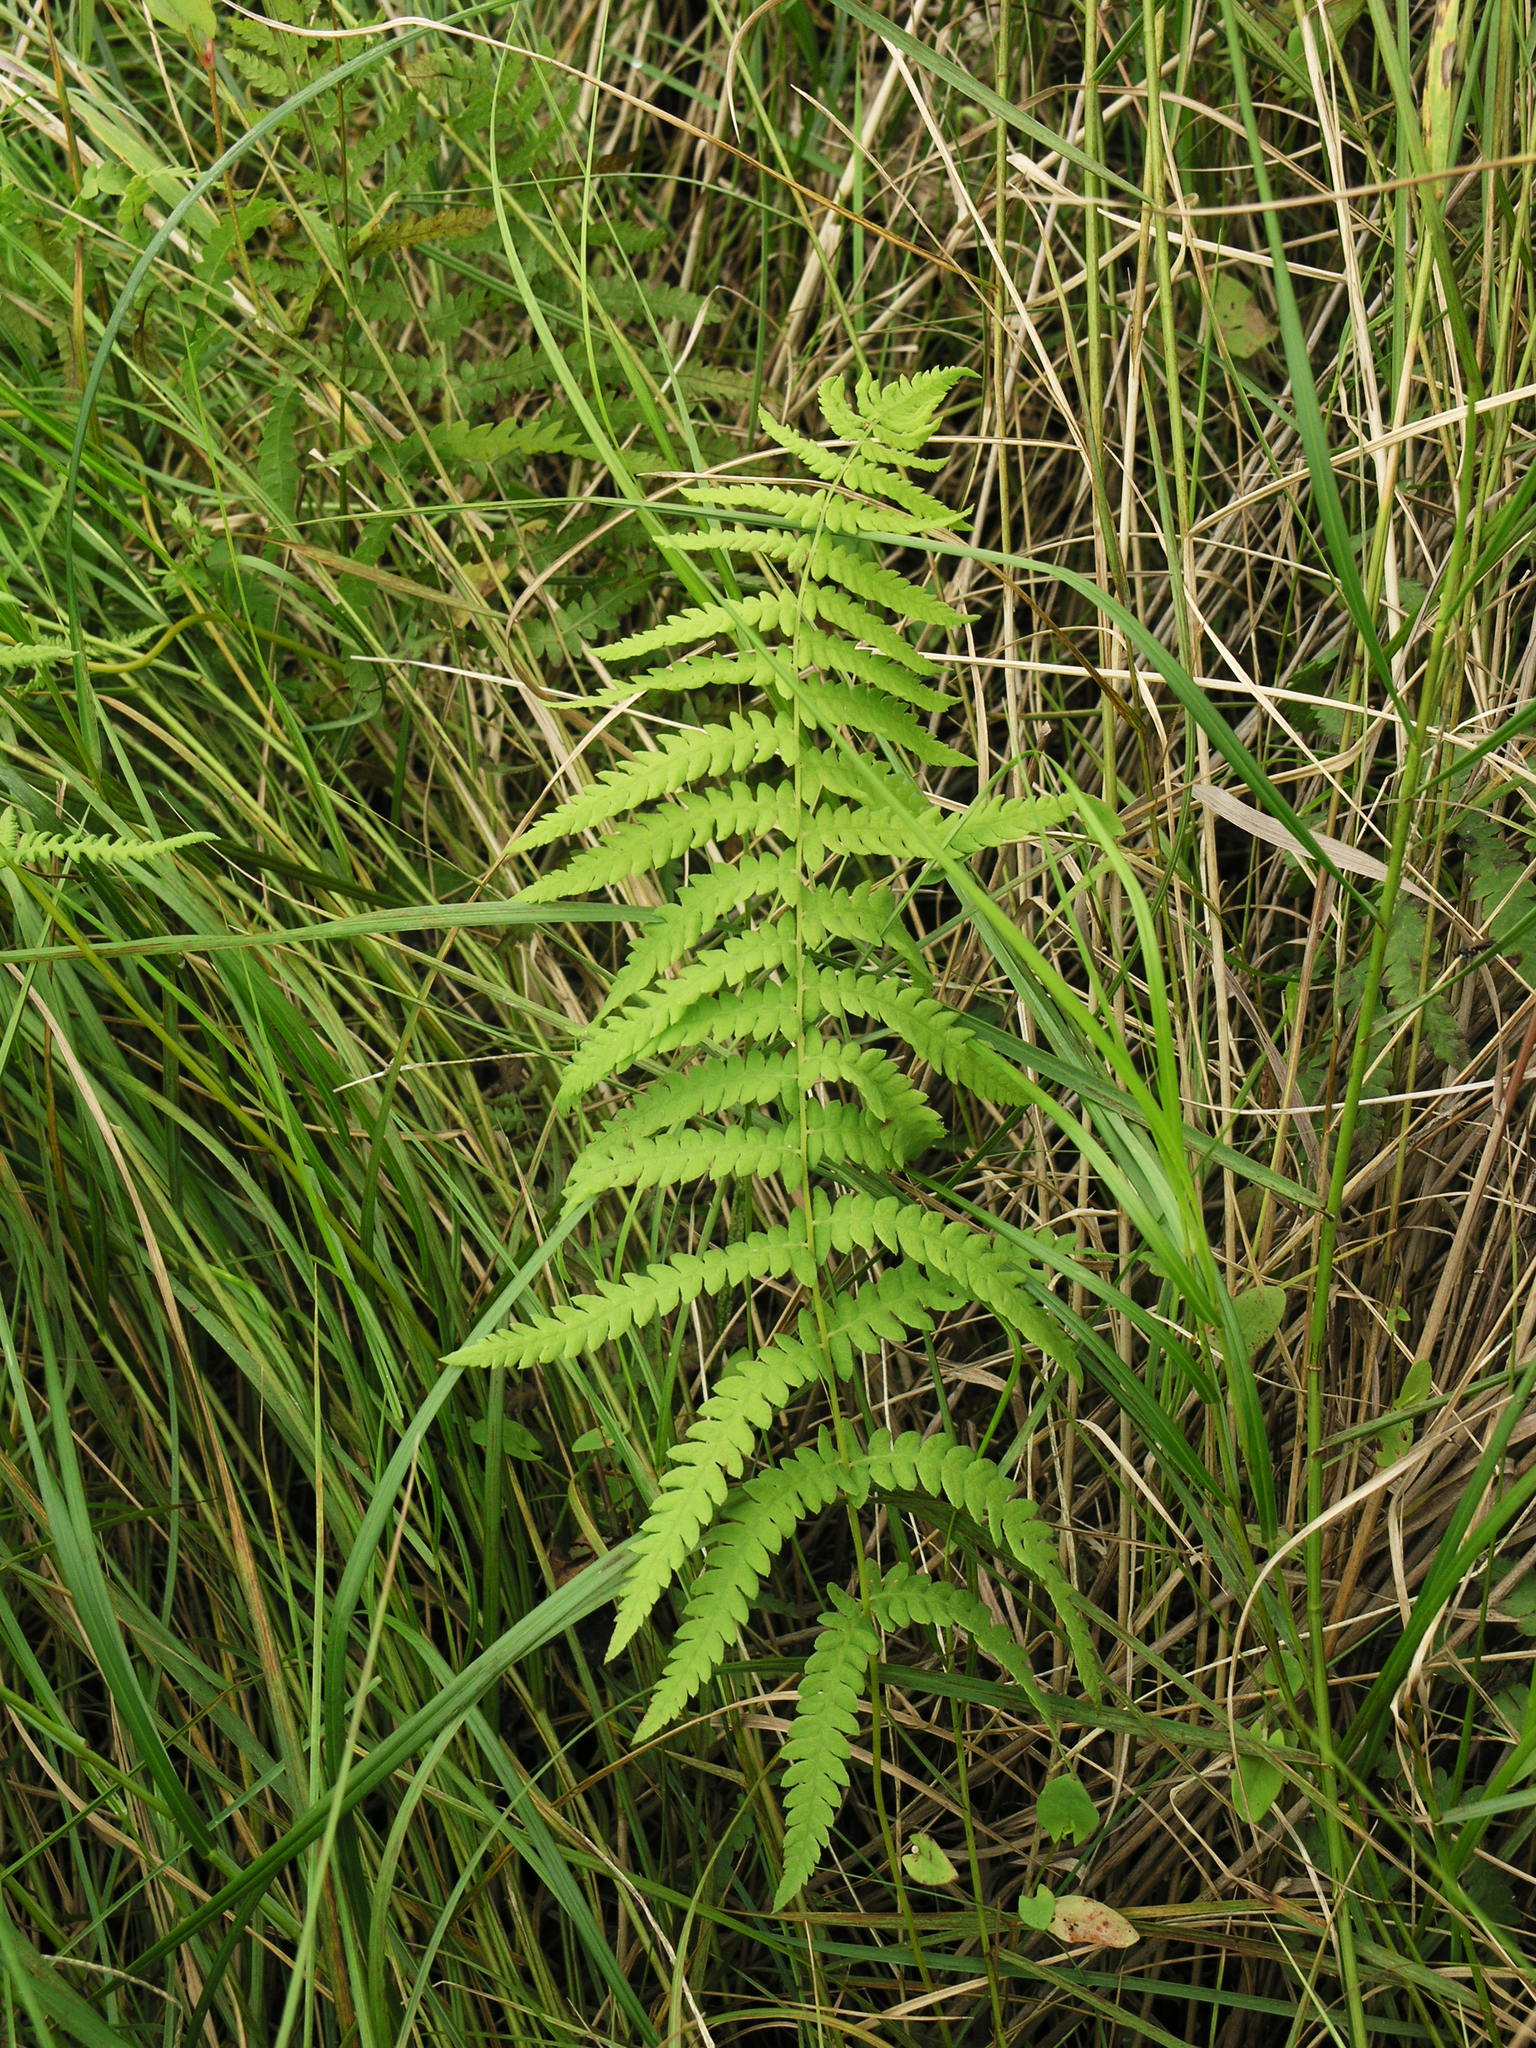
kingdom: Plantae
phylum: Tracheophyta
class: Polypodiopsida
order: Polypodiales
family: Thelypteridaceae
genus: Thelypteris
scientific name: Thelypteris palustris
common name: Marsh fern
